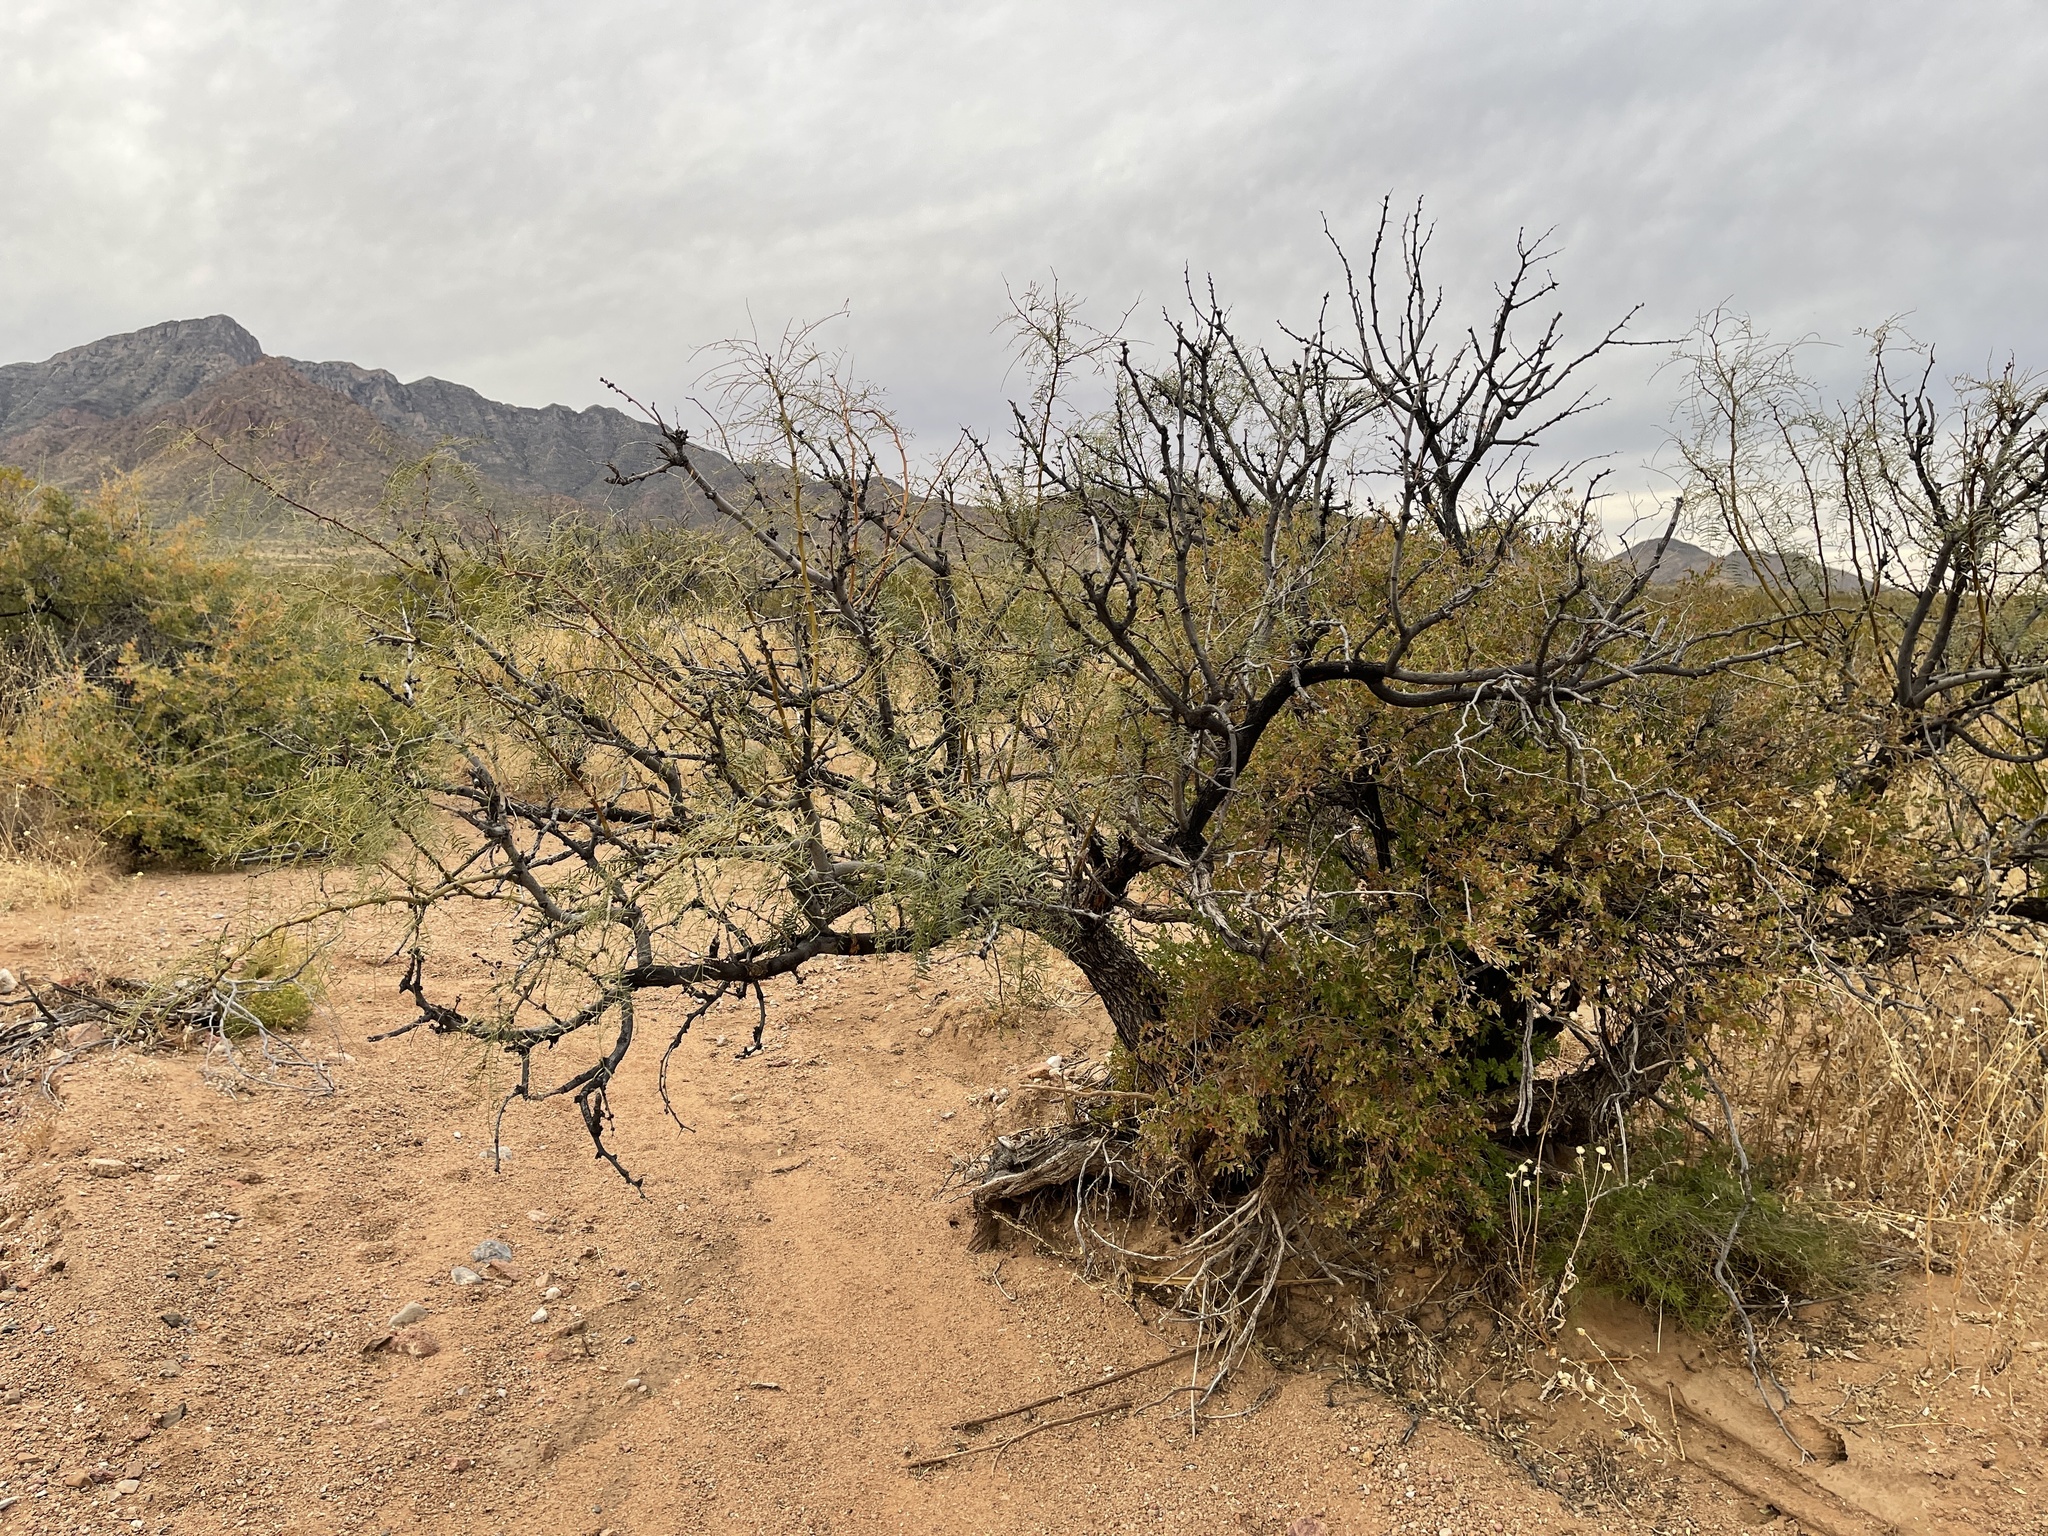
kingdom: Plantae
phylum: Tracheophyta
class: Magnoliopsida
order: Fabales
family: Fabaceae
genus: Prosopis
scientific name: Prosopis glandulosa
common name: Honey mesquite
